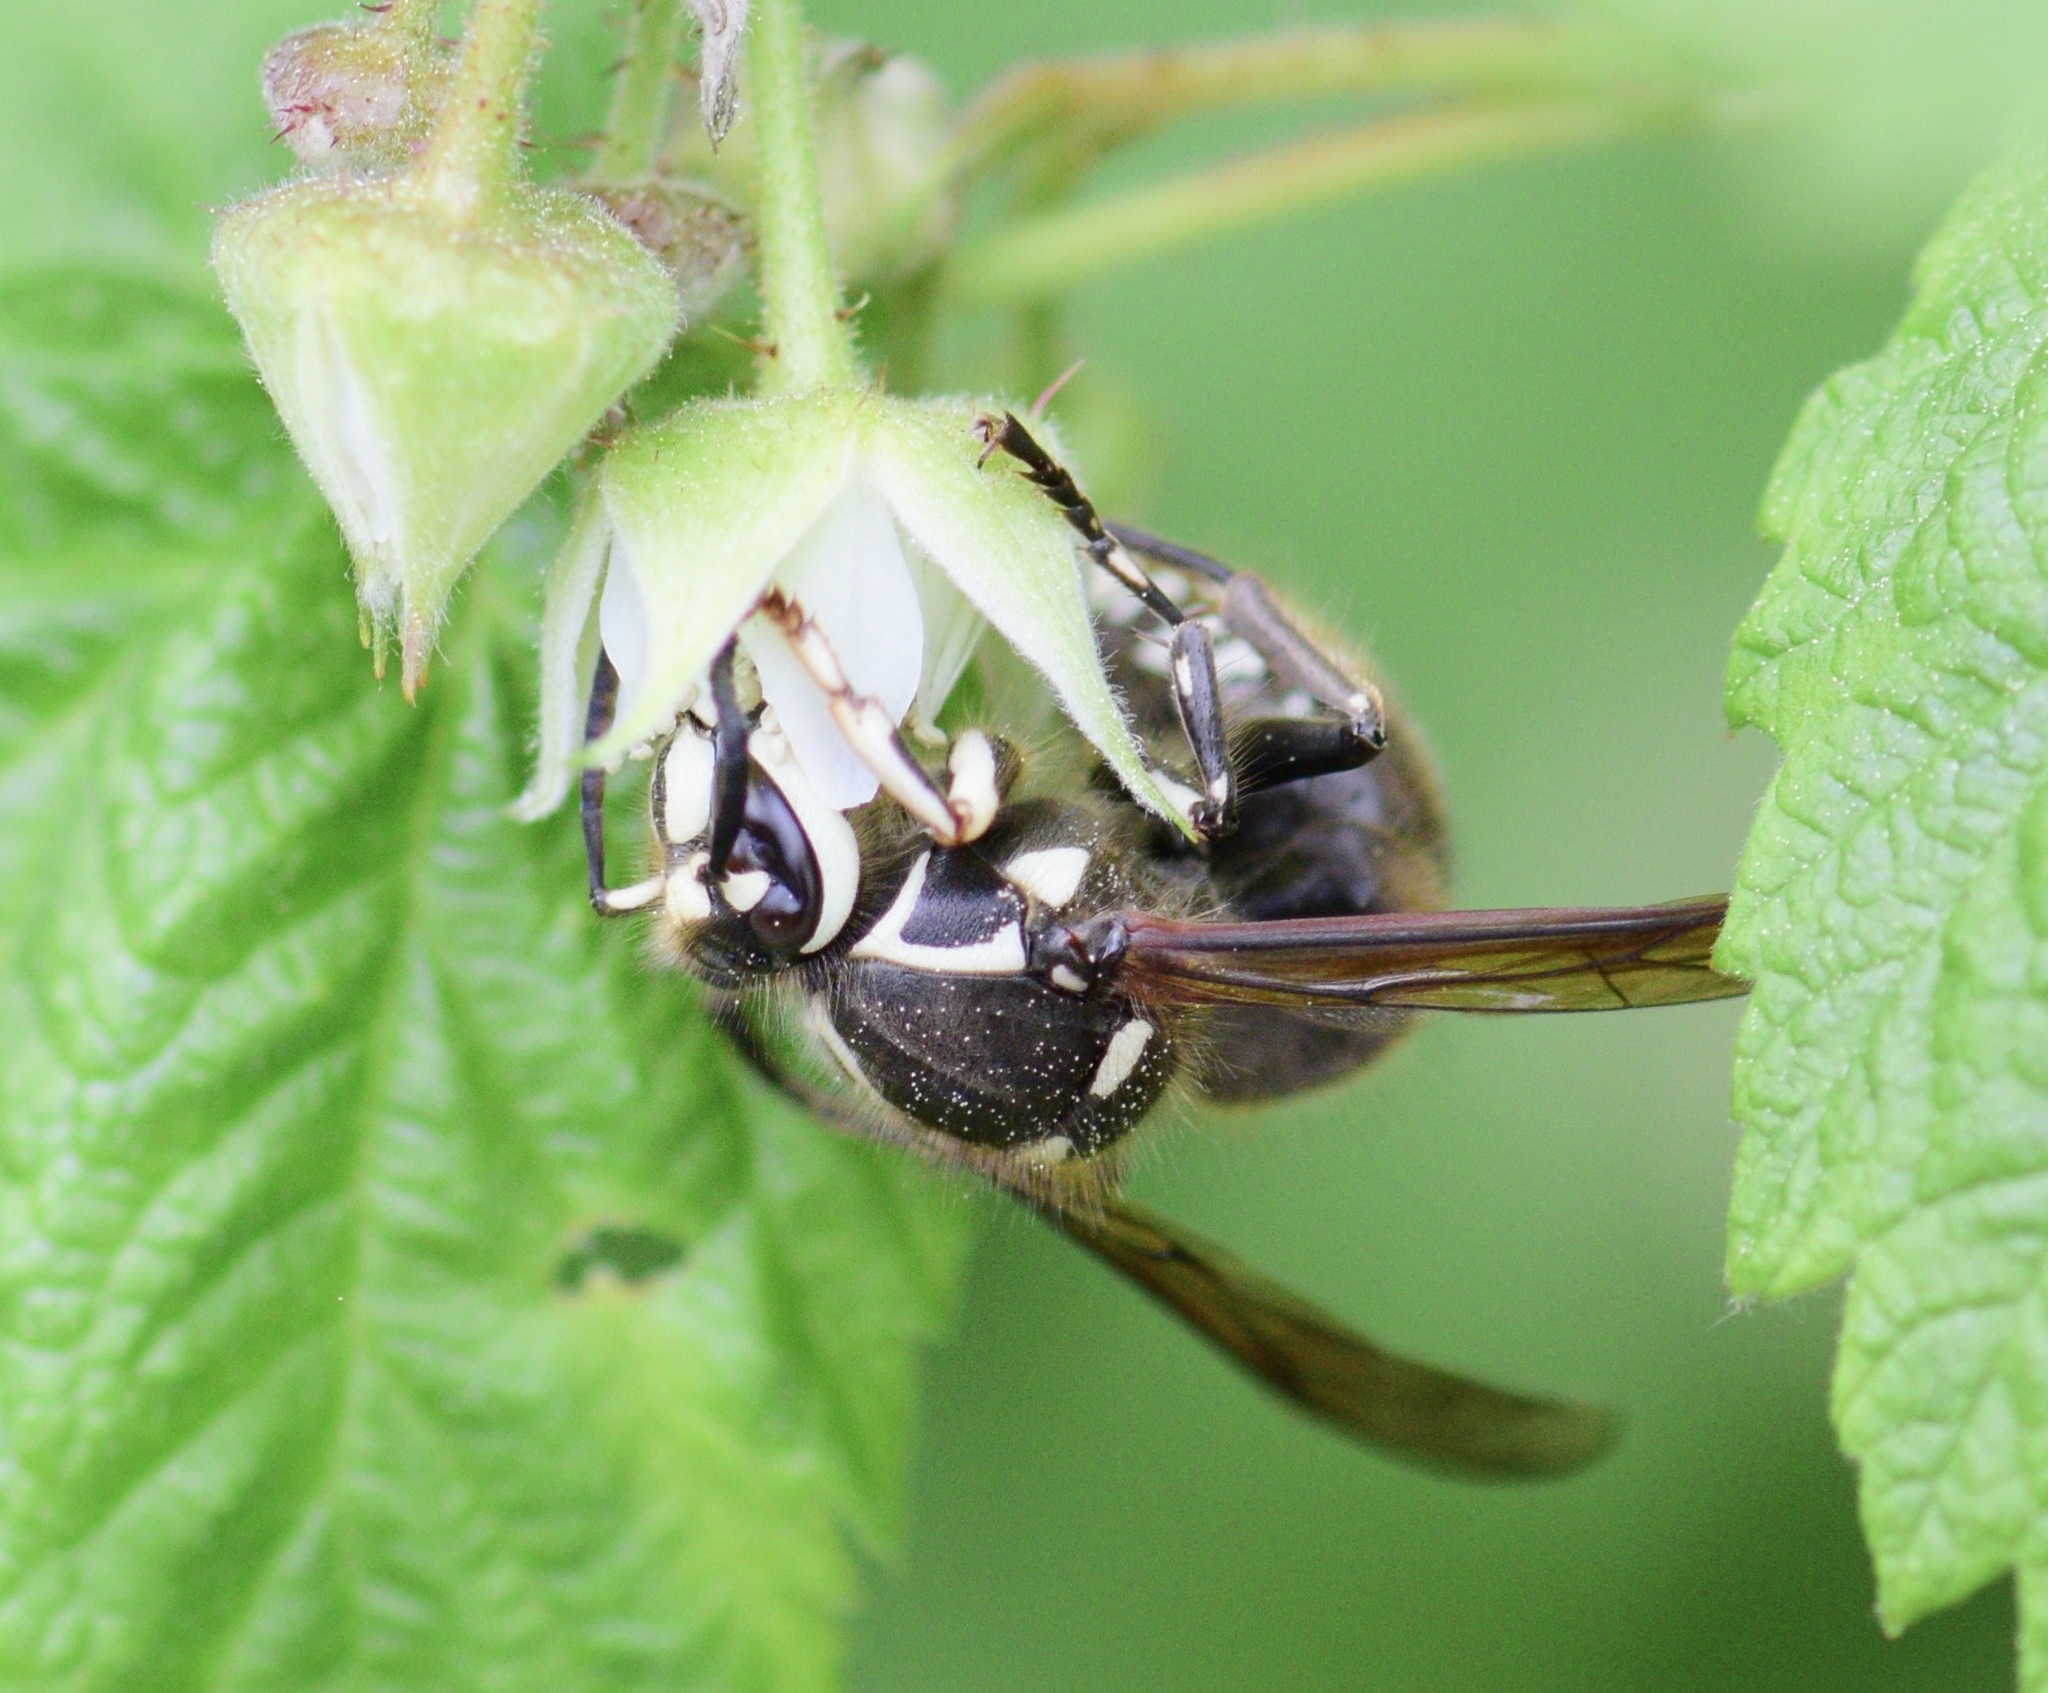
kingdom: Animalia
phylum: Arthropoda
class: Insecta
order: Hymenoptera
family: Vespidae
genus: Dolichovespula
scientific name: Dolichovespula maculata
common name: Bald-faced hornet
